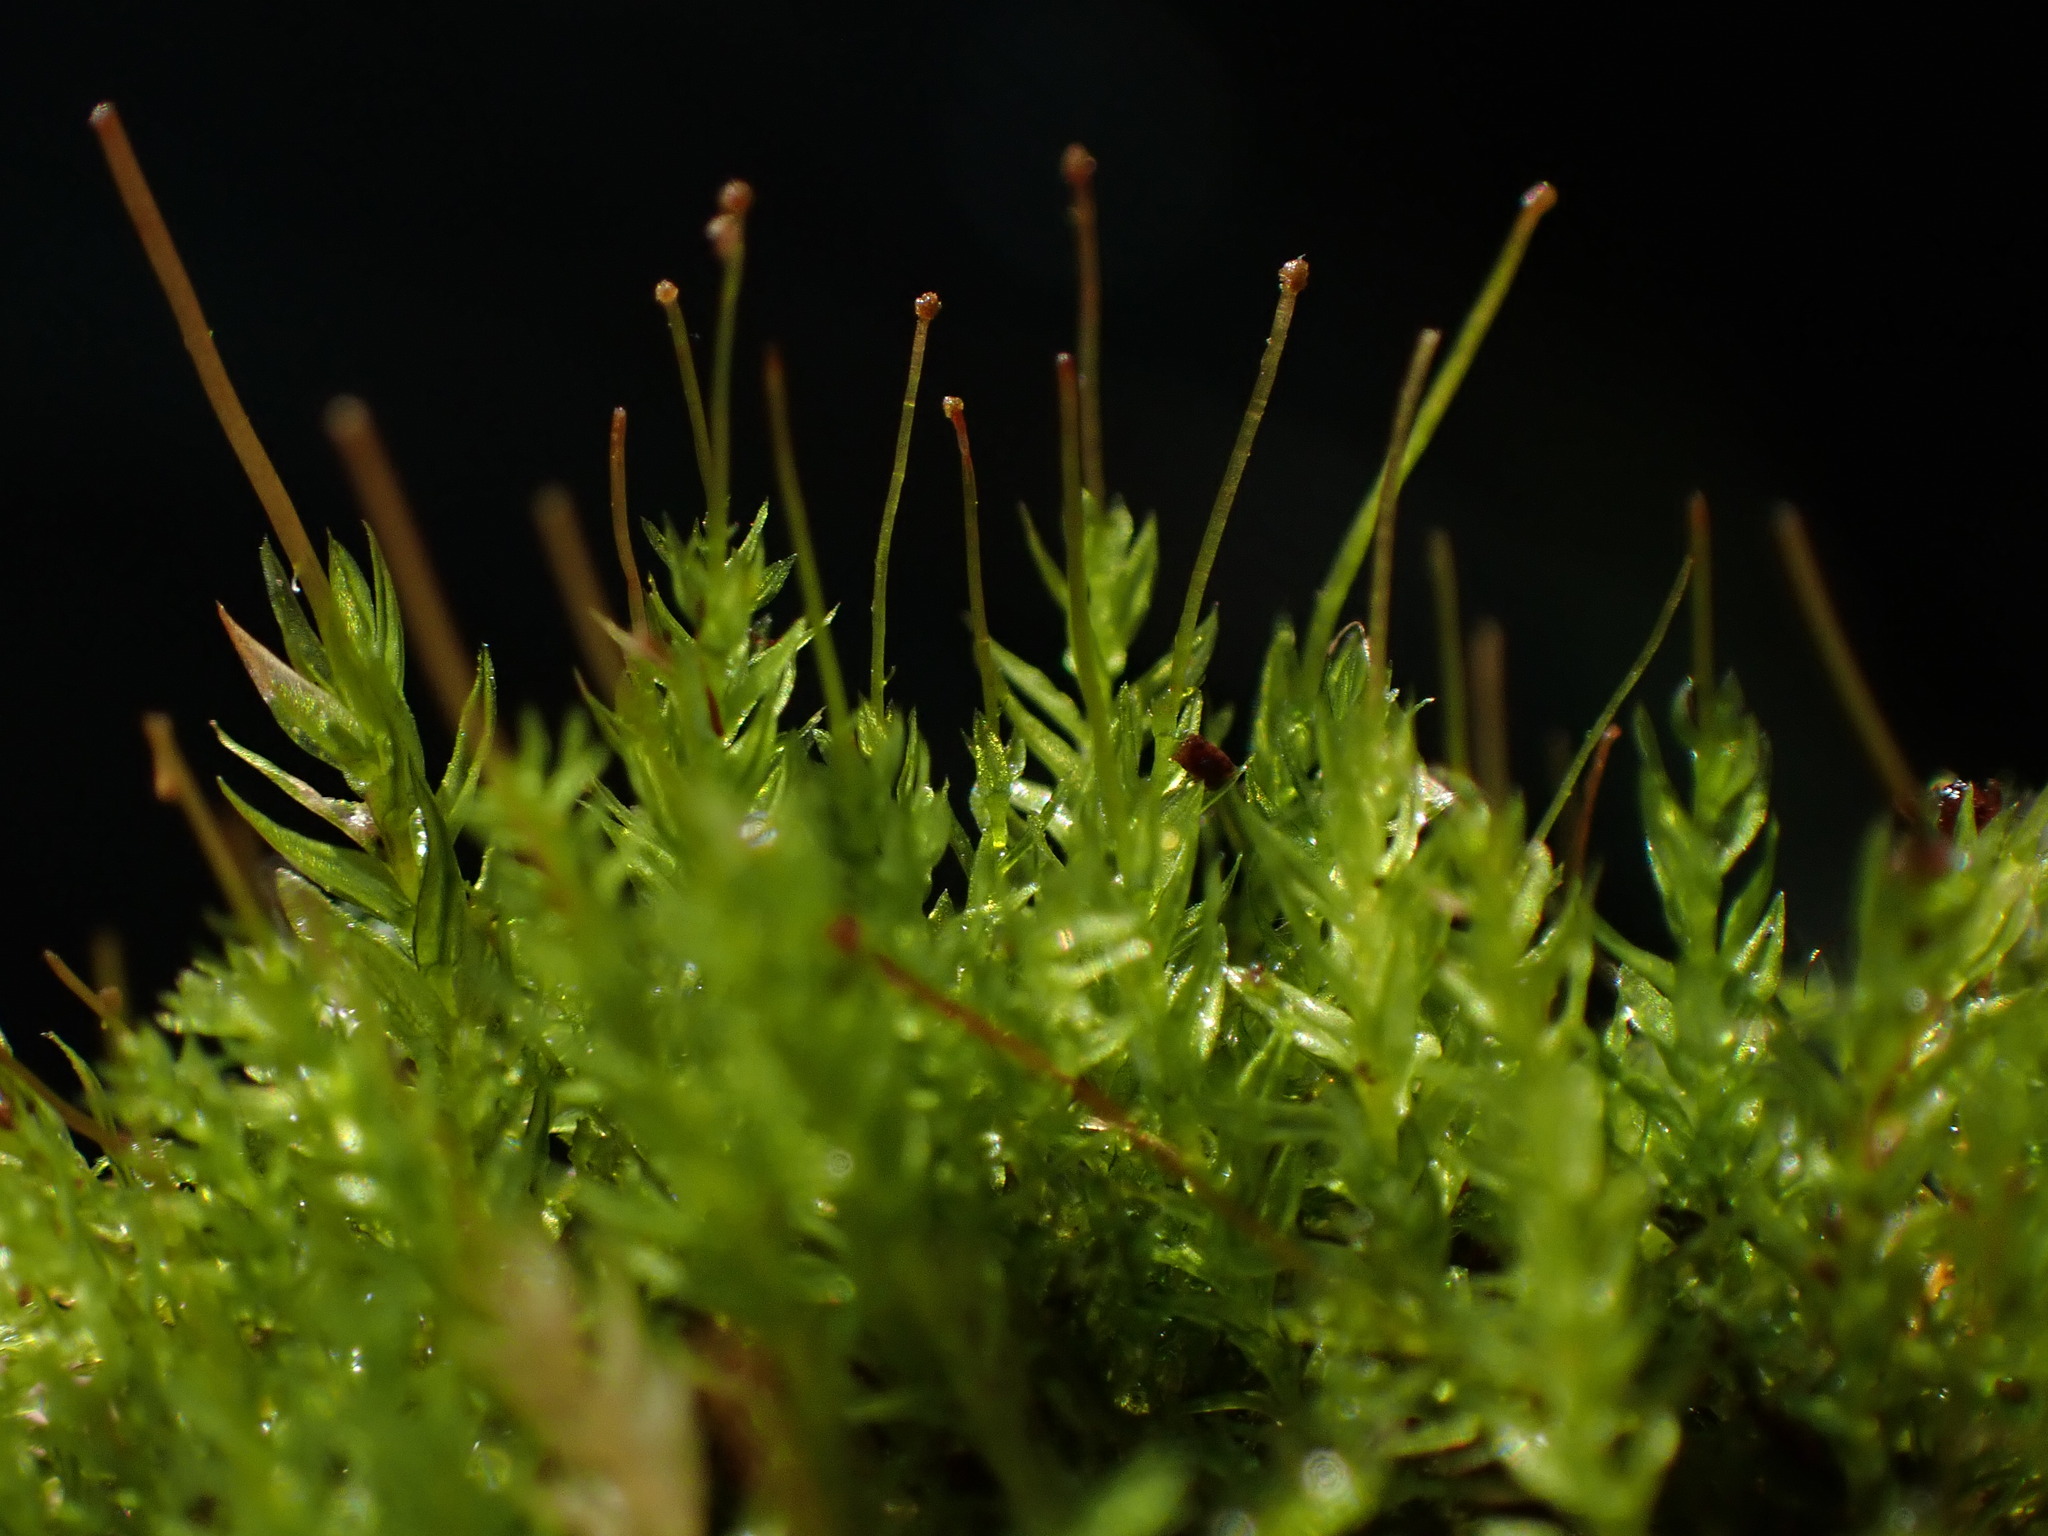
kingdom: Plantae
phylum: Bryophyta
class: Bryopsida
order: Aulacomniales
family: Aulacomniaceae
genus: Aulacomnium
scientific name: Aulacomnium androgynum
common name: Little groove moss
